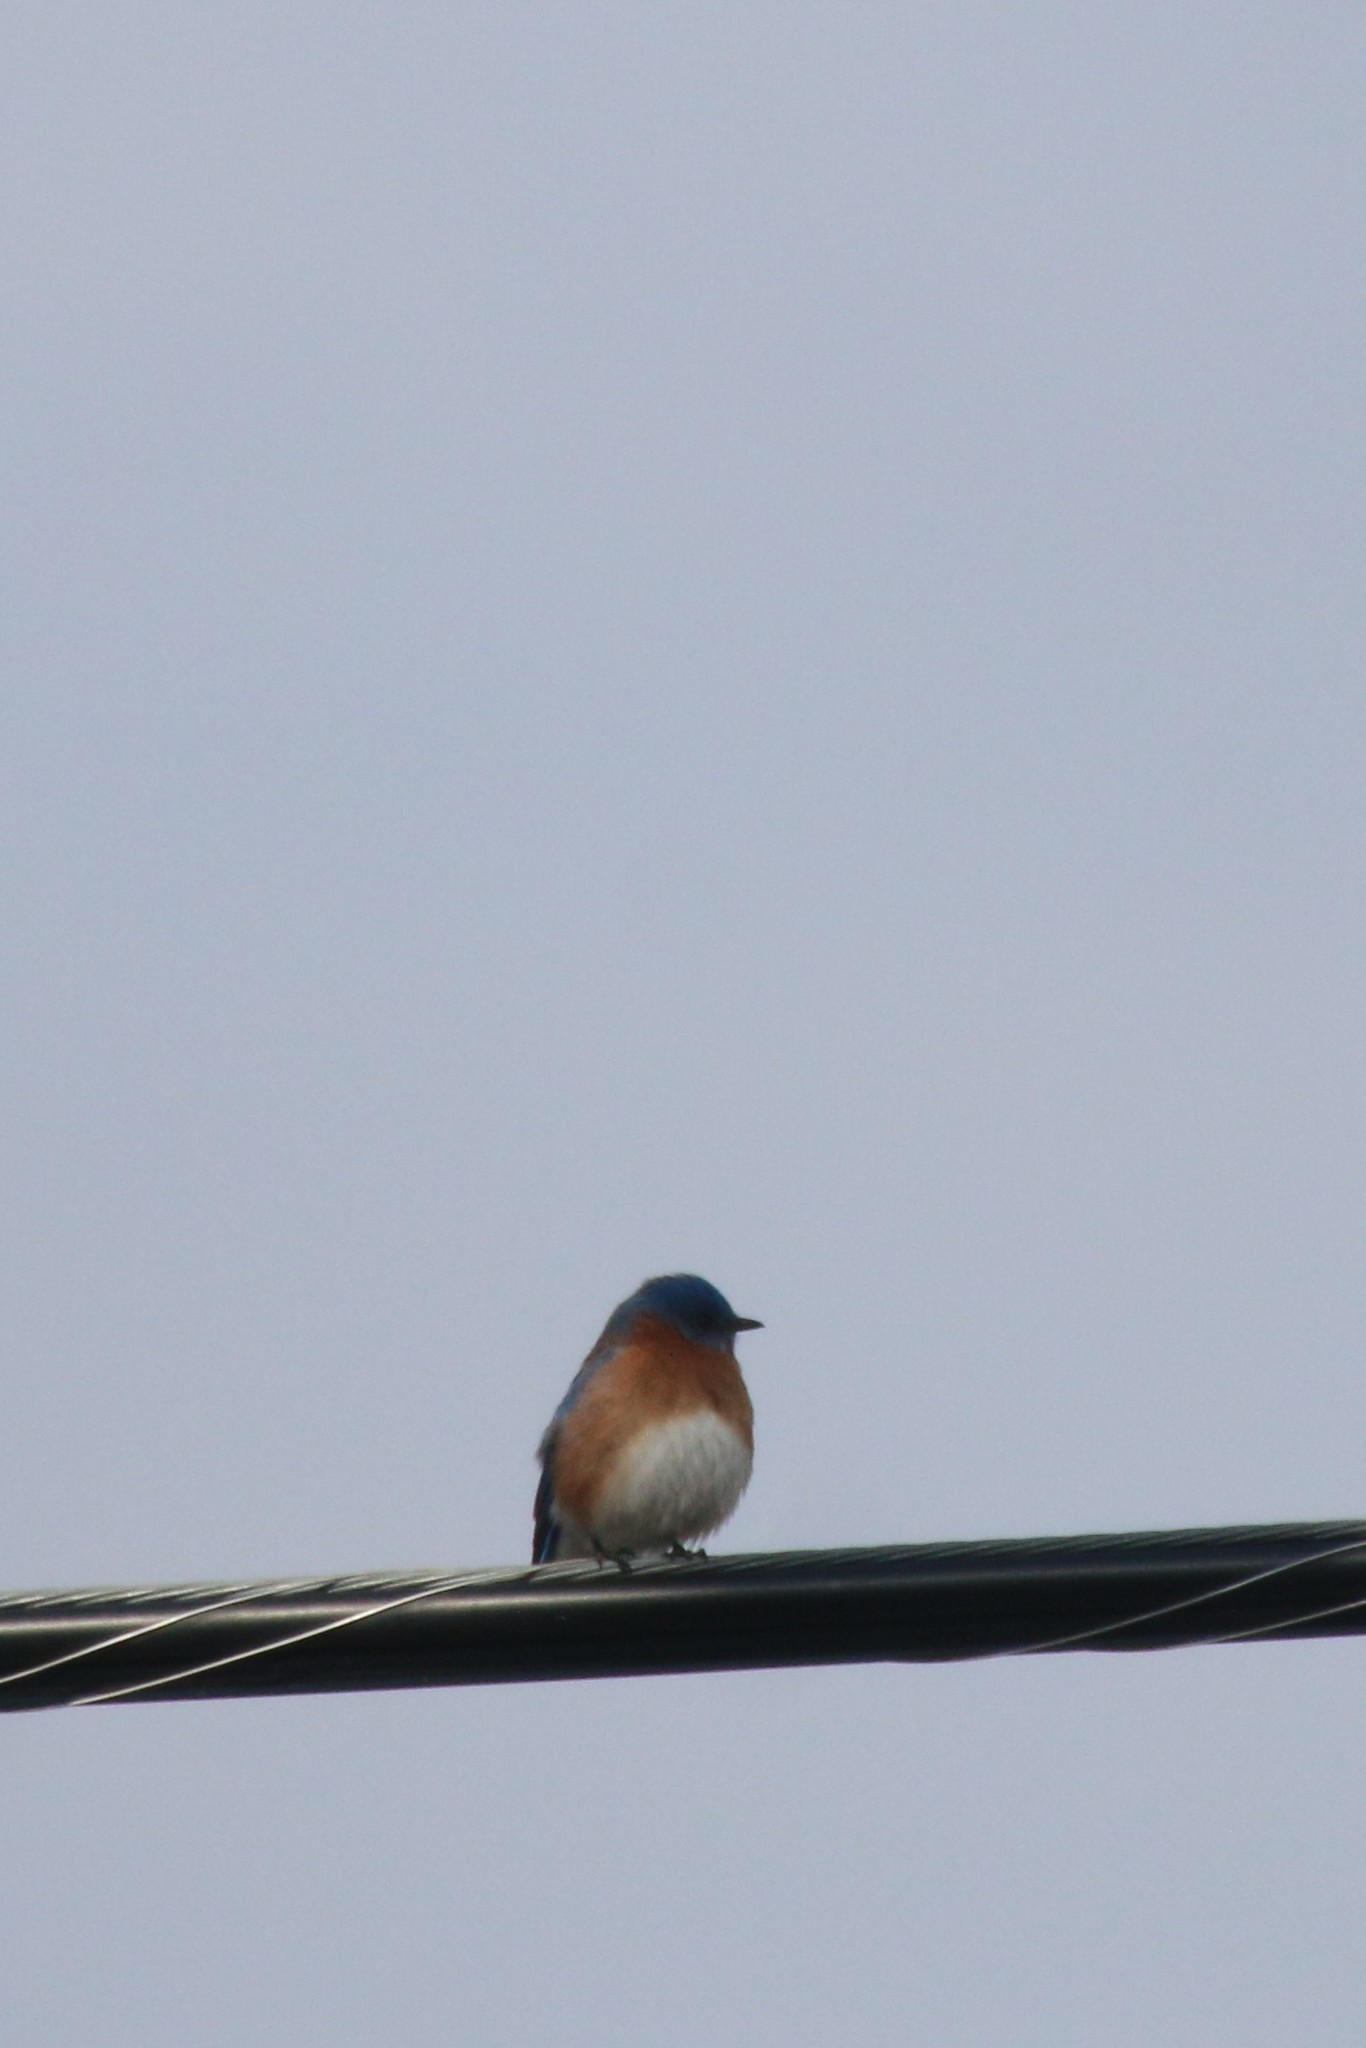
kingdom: Animalia
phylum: Chordata
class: Aves
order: Passeriformes
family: Turdidae
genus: Sialia
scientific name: Sialia sialis
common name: Eastern bluebird
